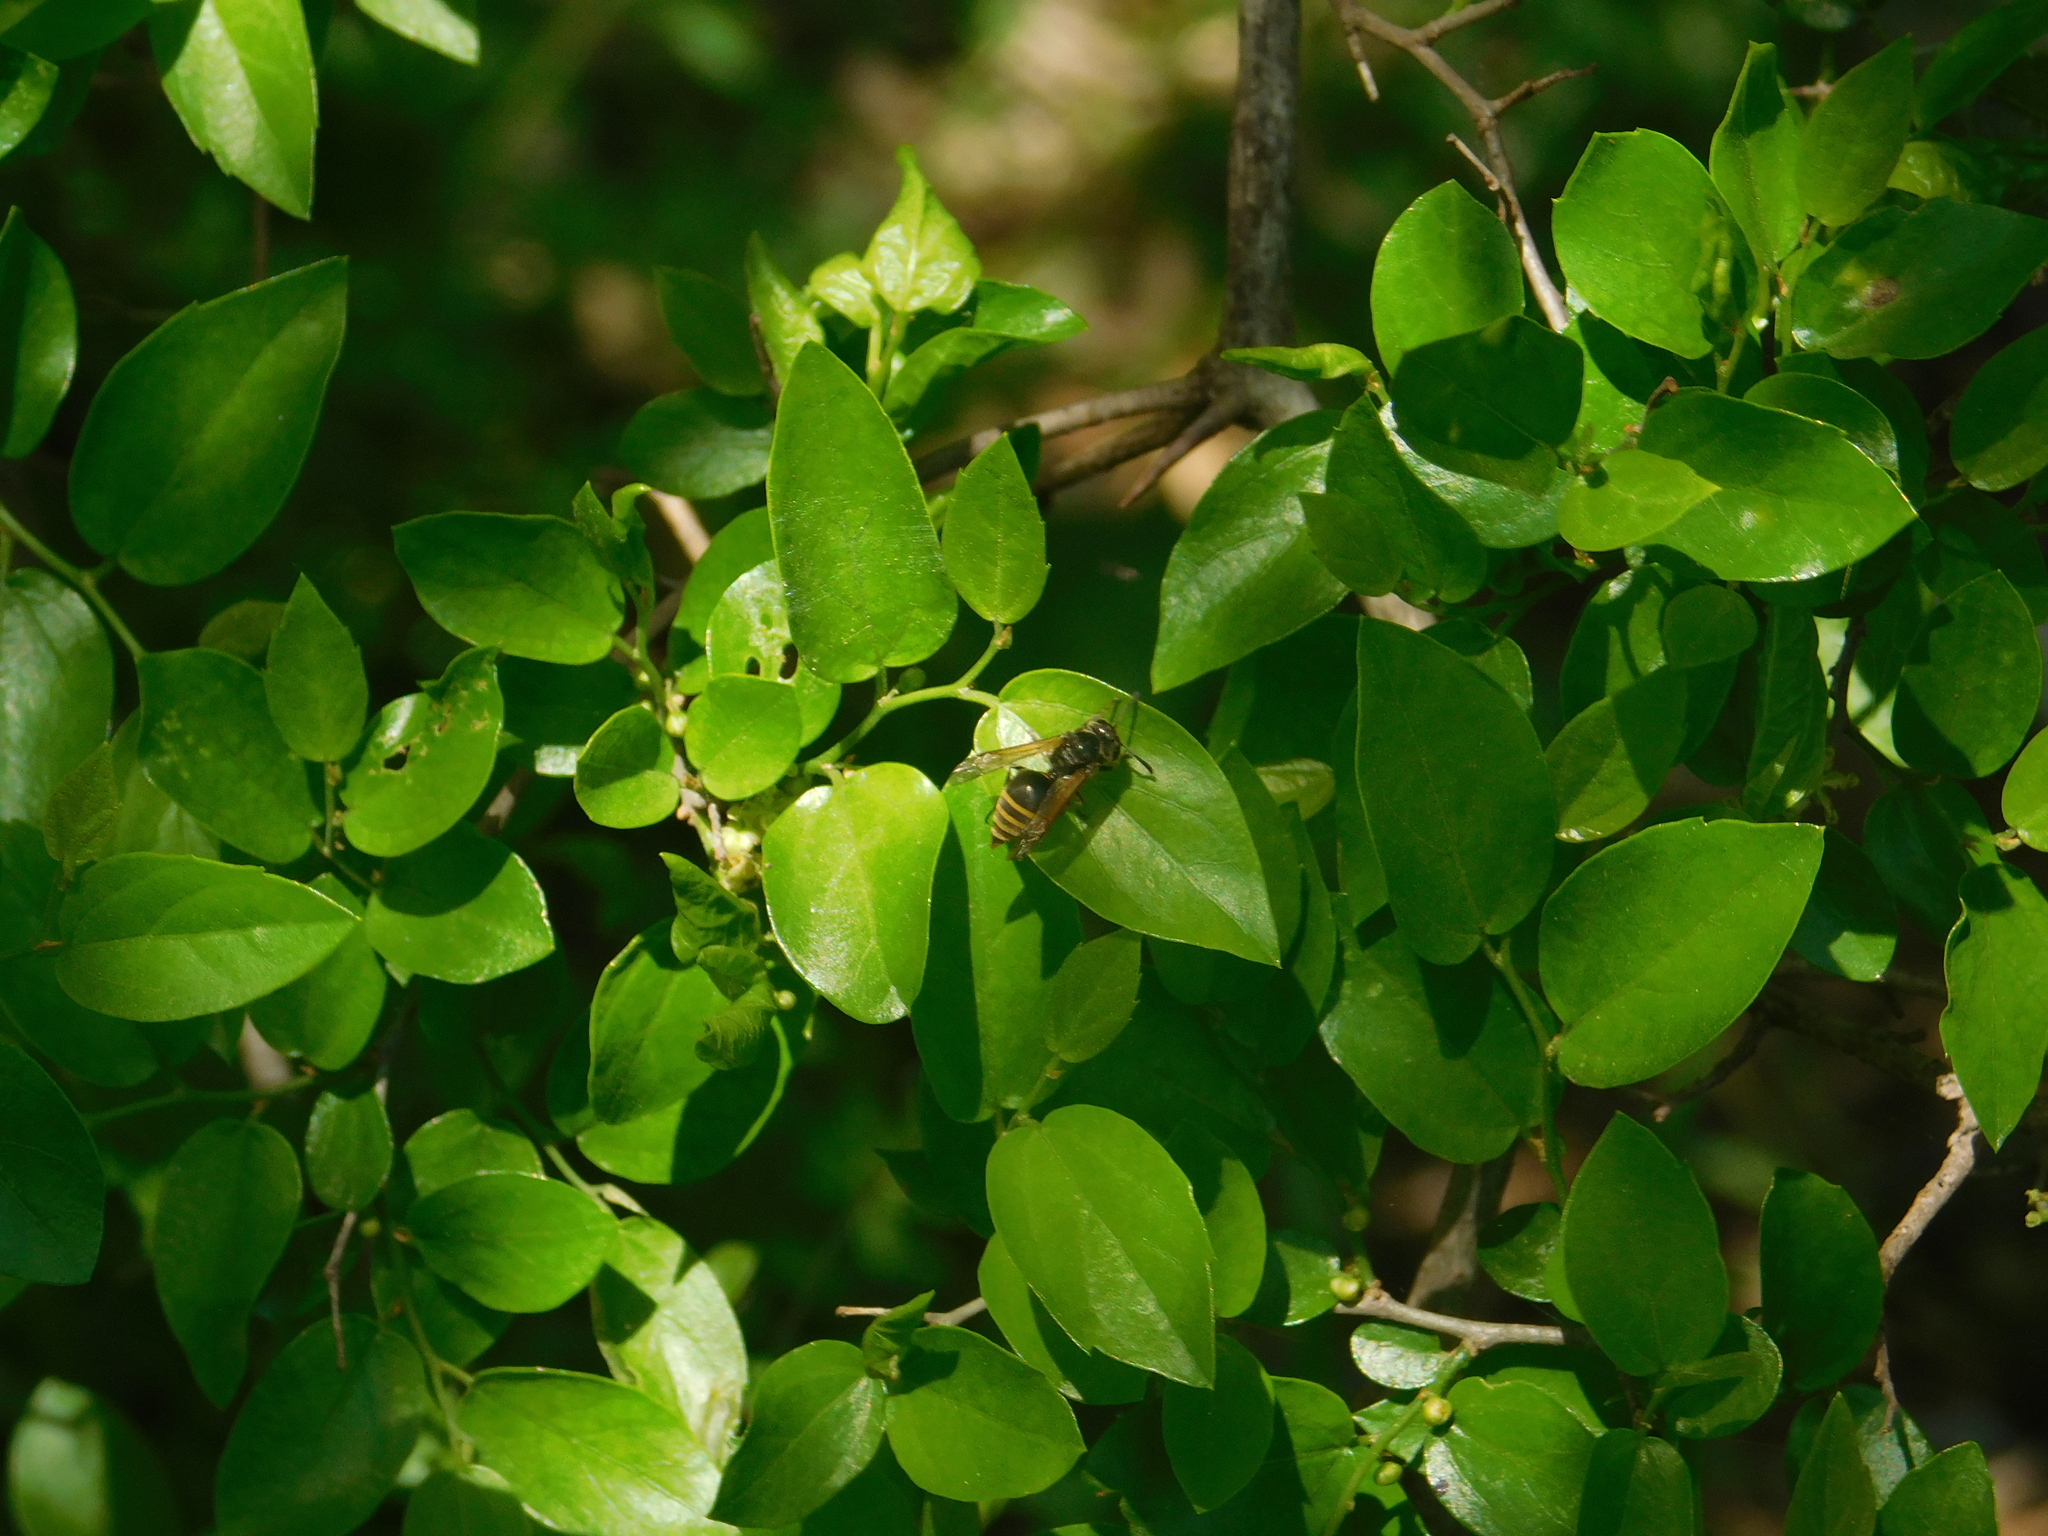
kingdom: Animalia
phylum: Arthropoda
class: Insecta
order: Hymenoptera
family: Vespidae
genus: Brachygastra
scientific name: Brachygastra lecheguana
